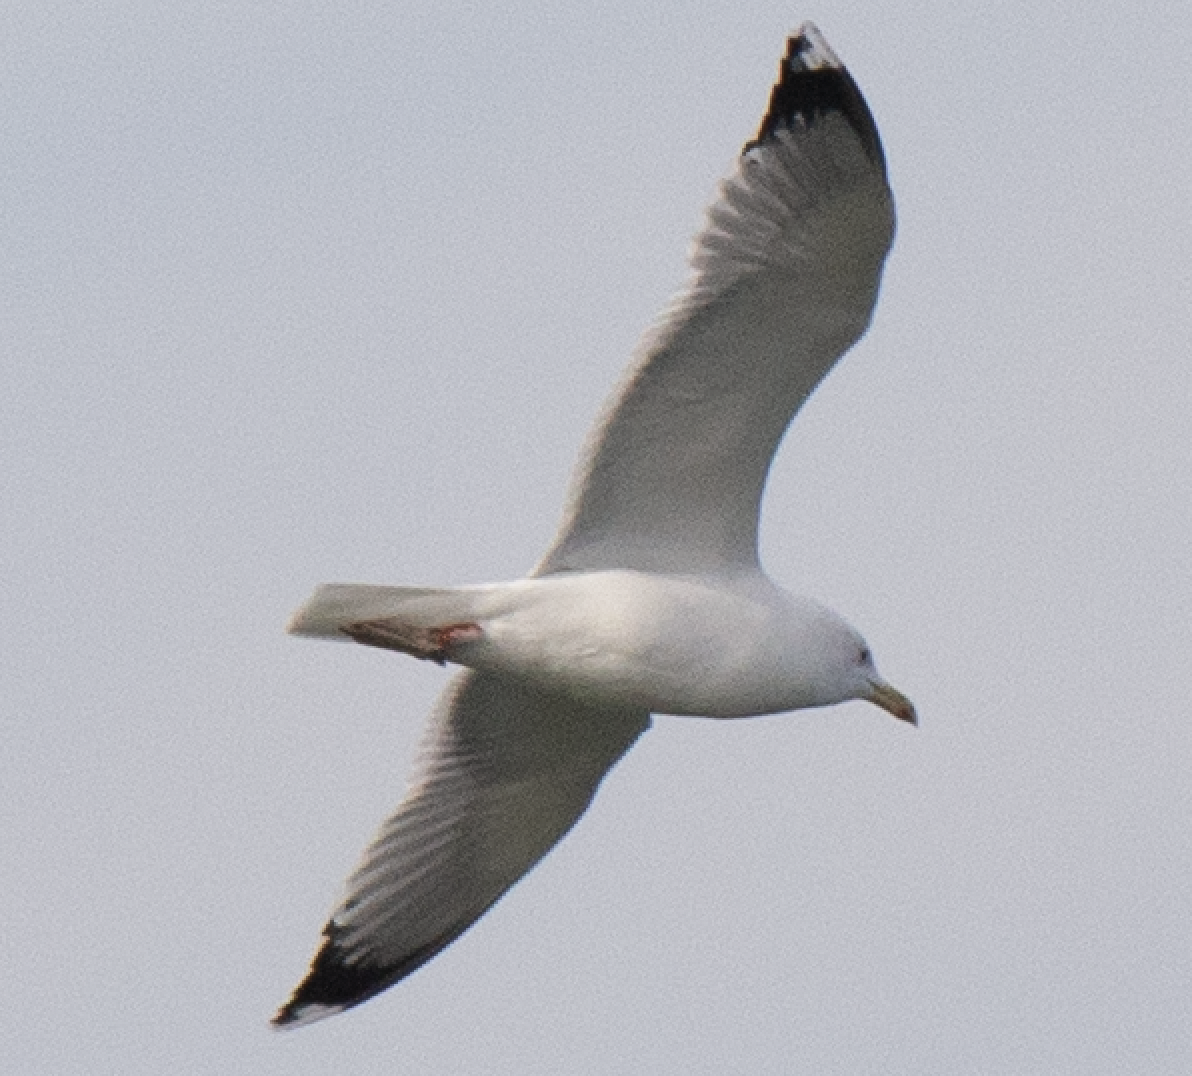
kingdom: Animalia
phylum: Chordata
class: Aves
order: Charadriiformes
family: Laridae
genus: Larus
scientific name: Larus michahellis
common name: Yellow-legged gull
